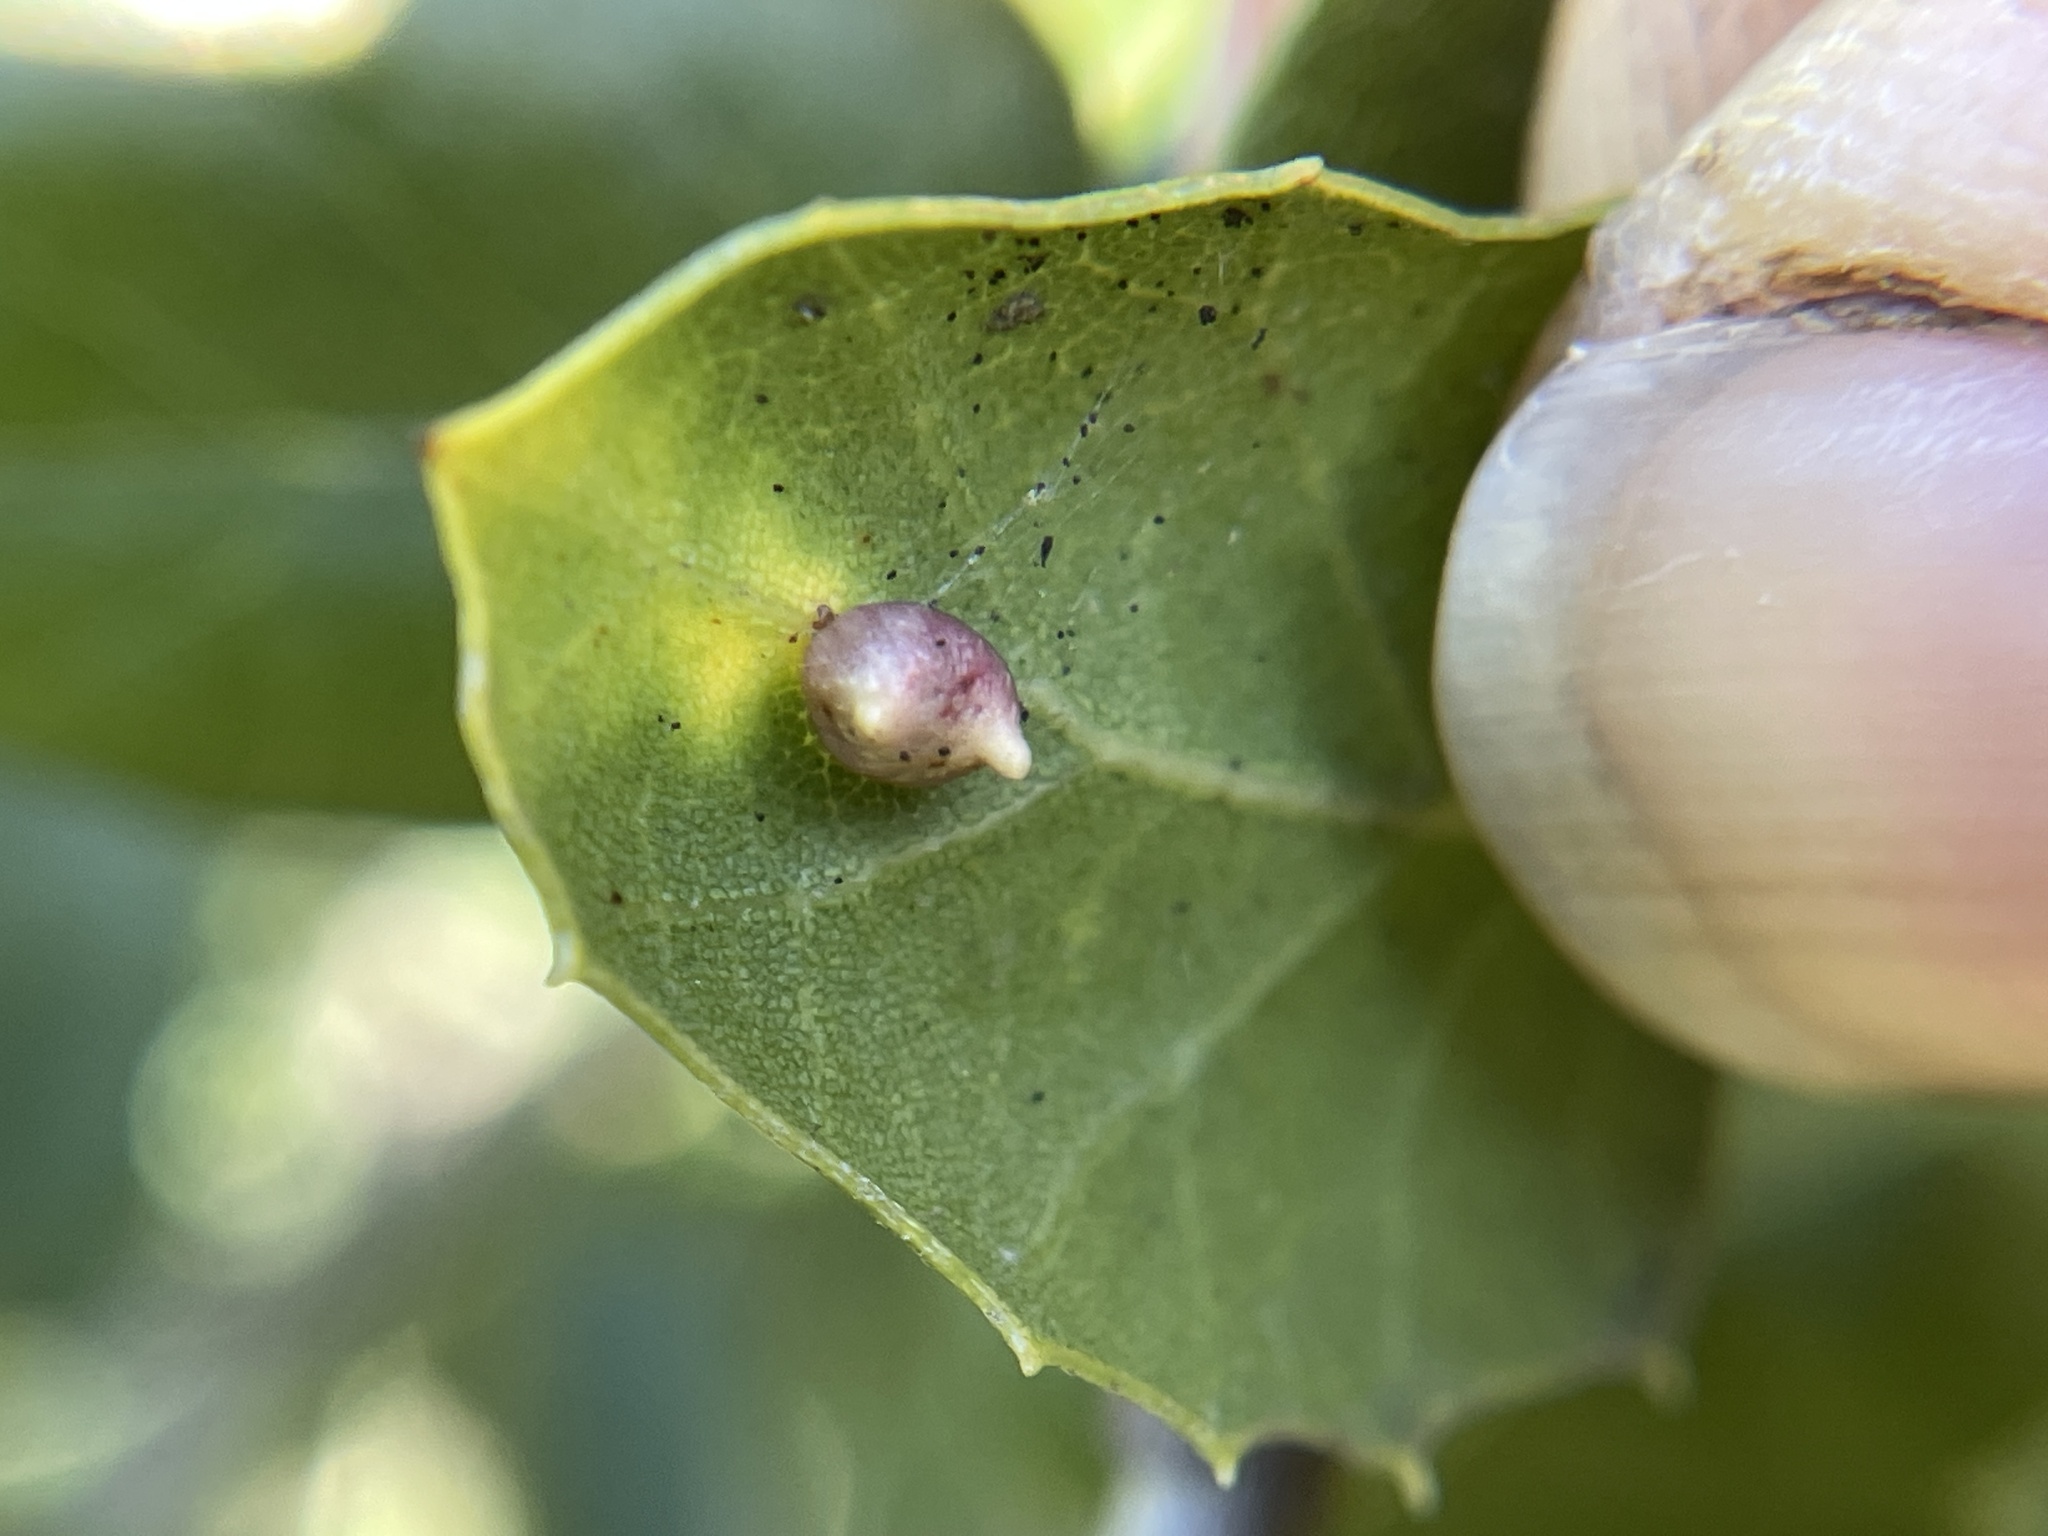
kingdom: Animalia
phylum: Arthropoda
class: Insecta
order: Hymenoptera
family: Cynipidae
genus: Dryocosmus
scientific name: Dryocosmus
